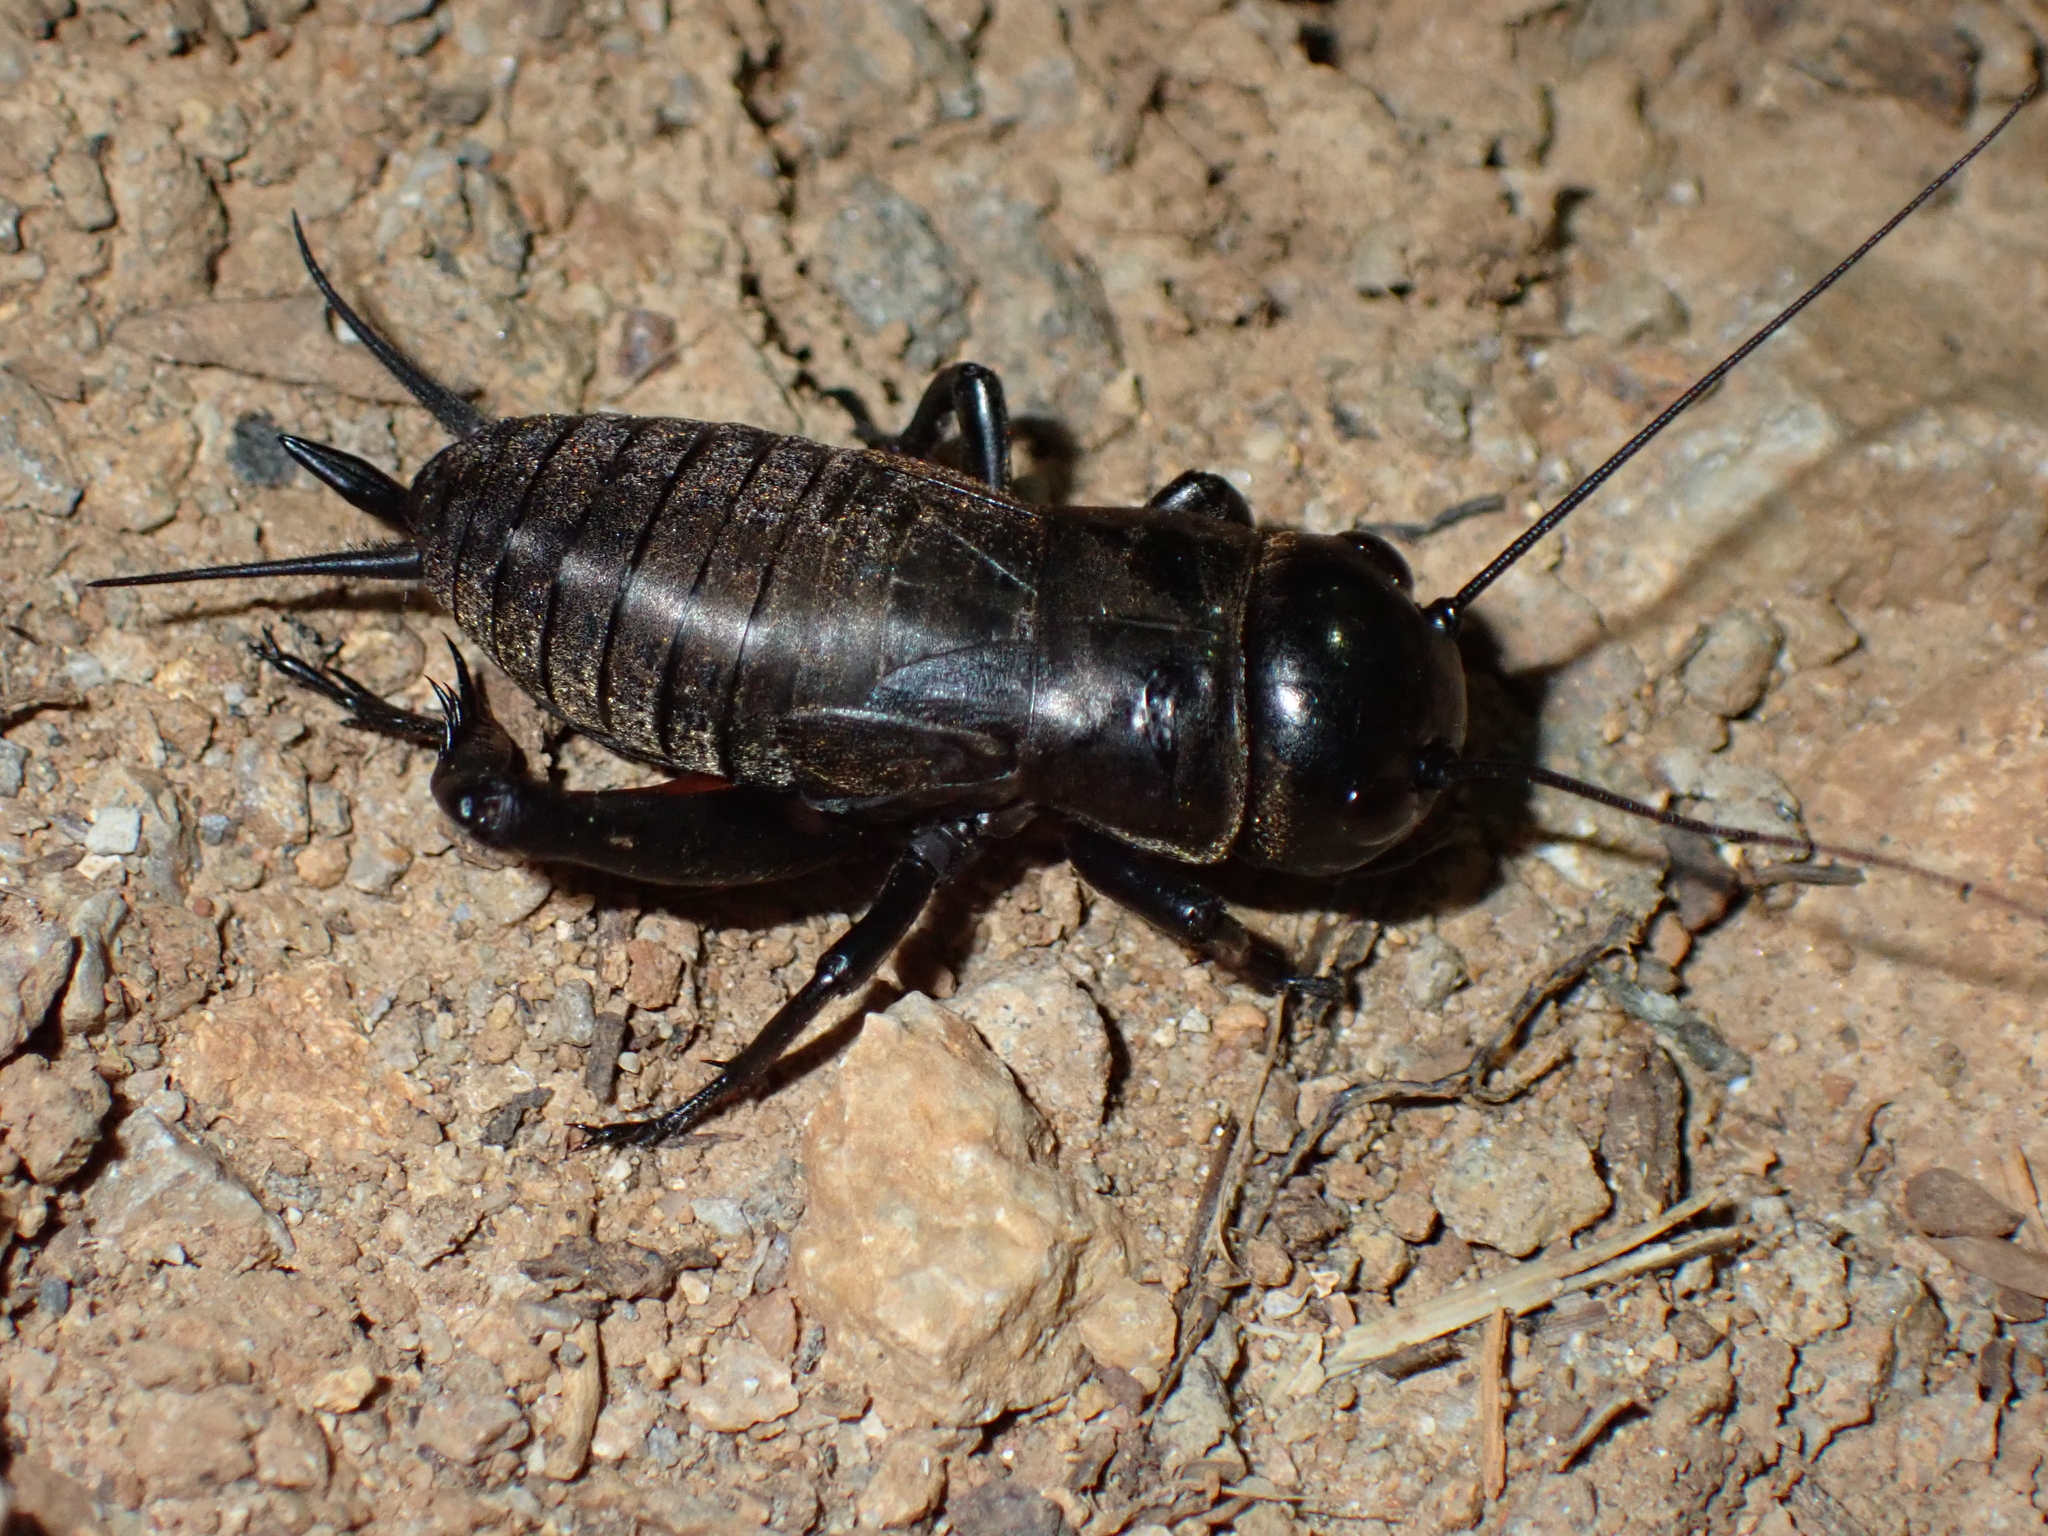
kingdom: Animalia
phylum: Arthropoda
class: Insecta
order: Orthoptera
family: Gryllidae
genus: Gryllus
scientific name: Gryllus campestris
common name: Field cricket
